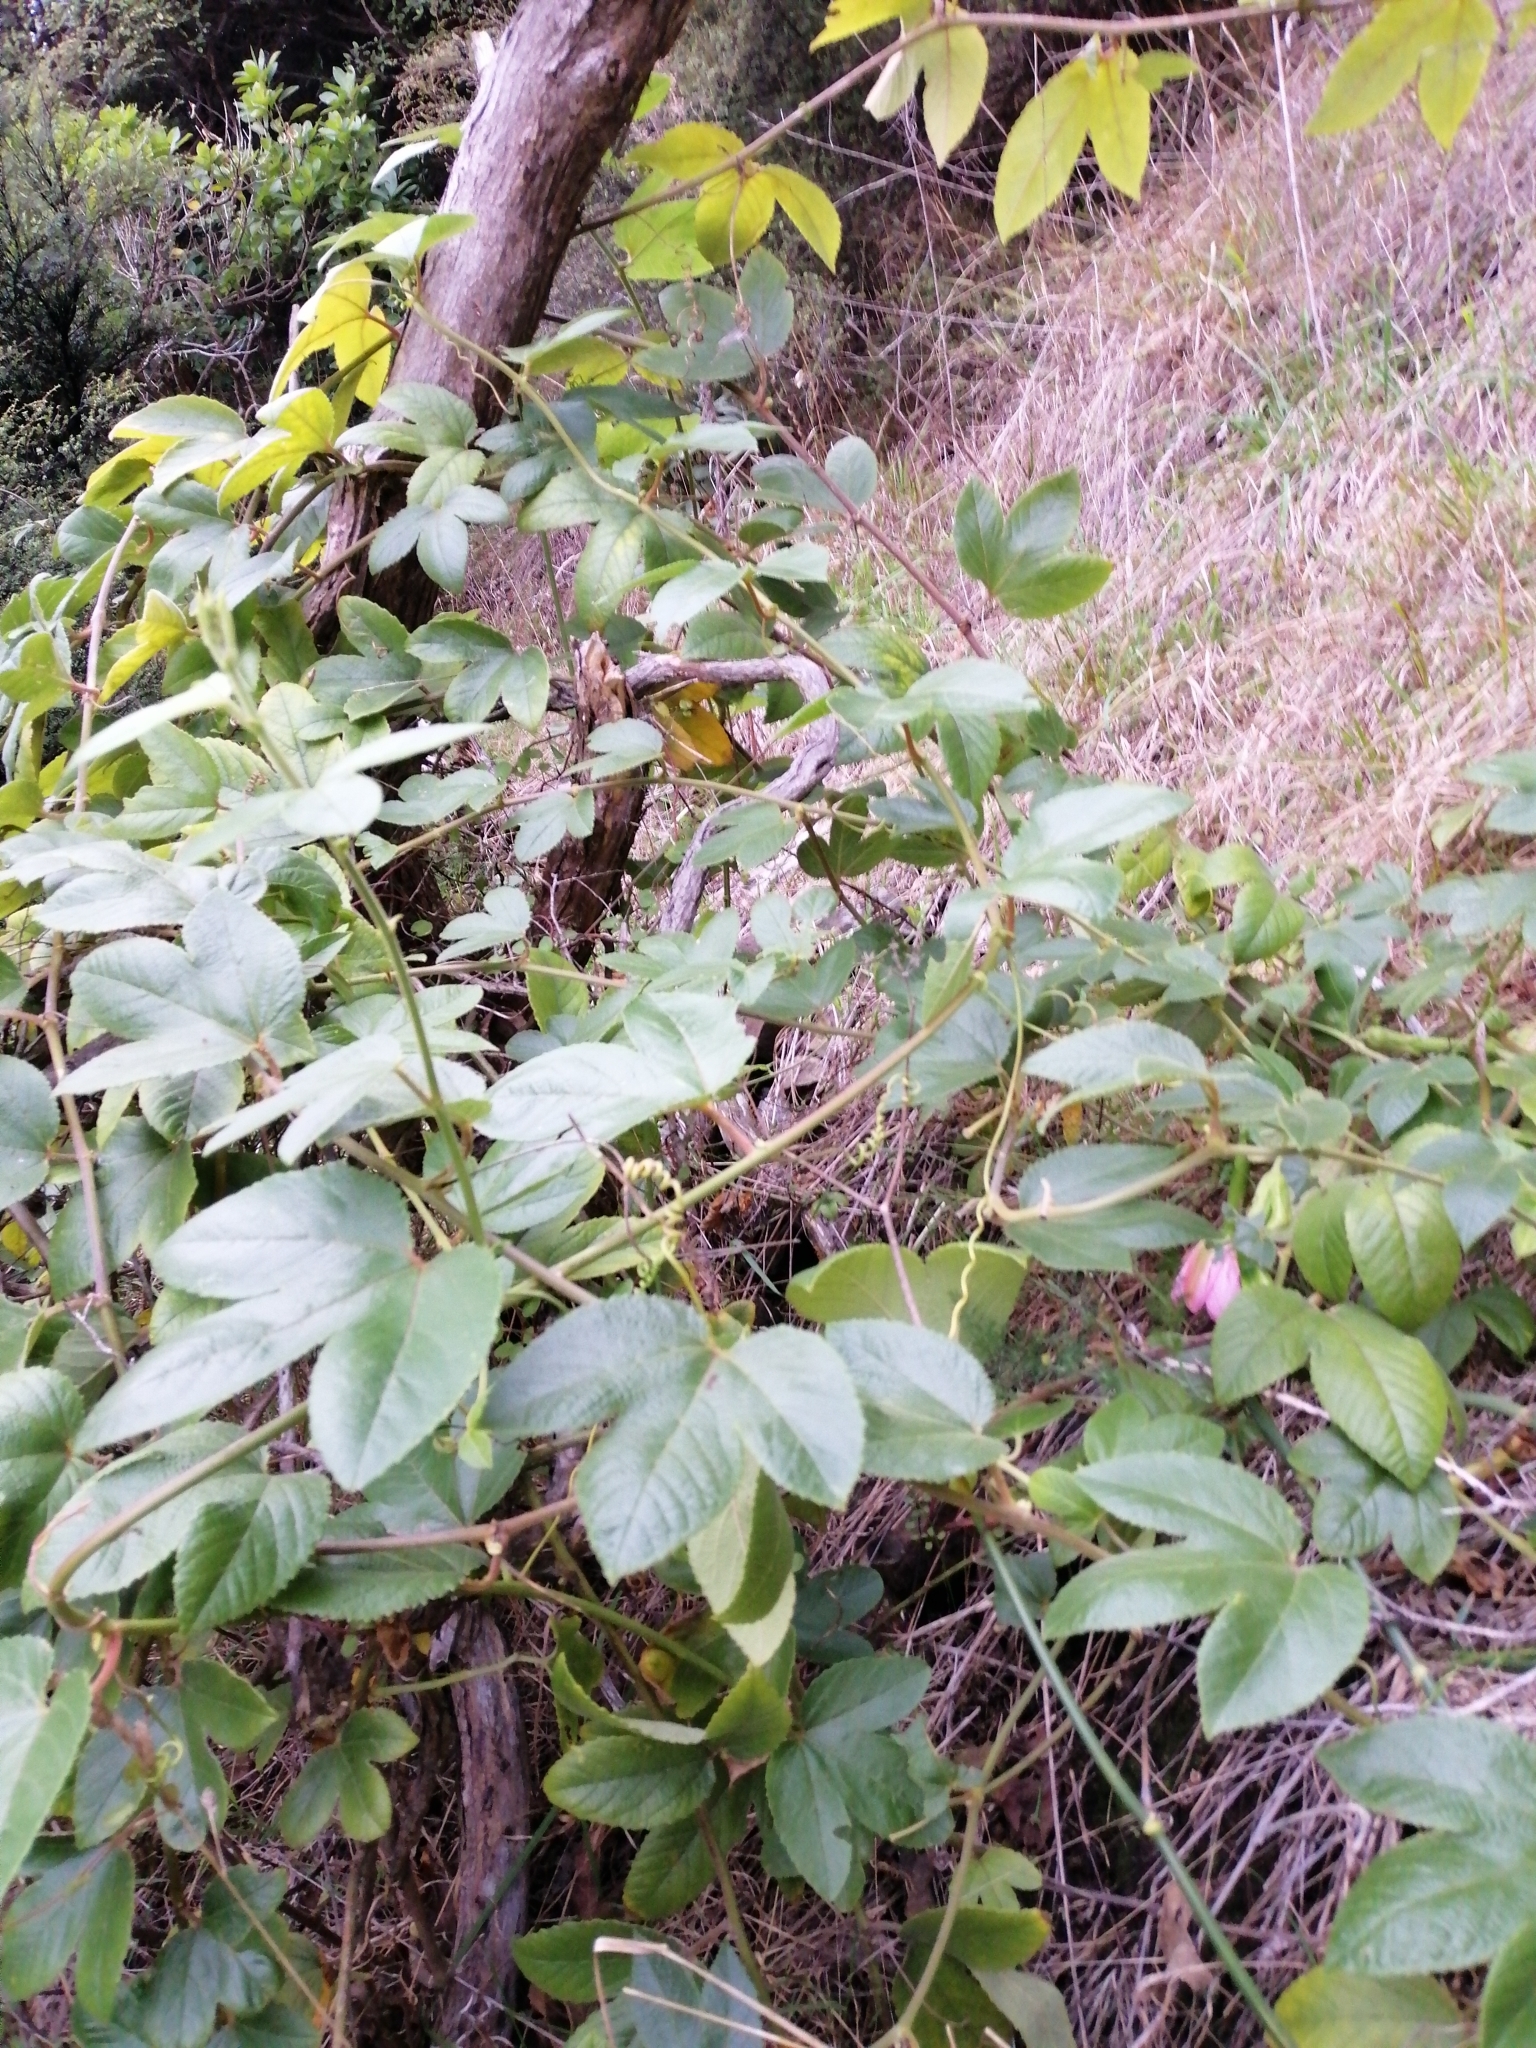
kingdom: Plantae
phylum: Tracheophyta
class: Magnoliopsida
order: Malpighiales
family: Passifloraceae
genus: Passiflora
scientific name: Passiflora tripartita
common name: Banana poka
